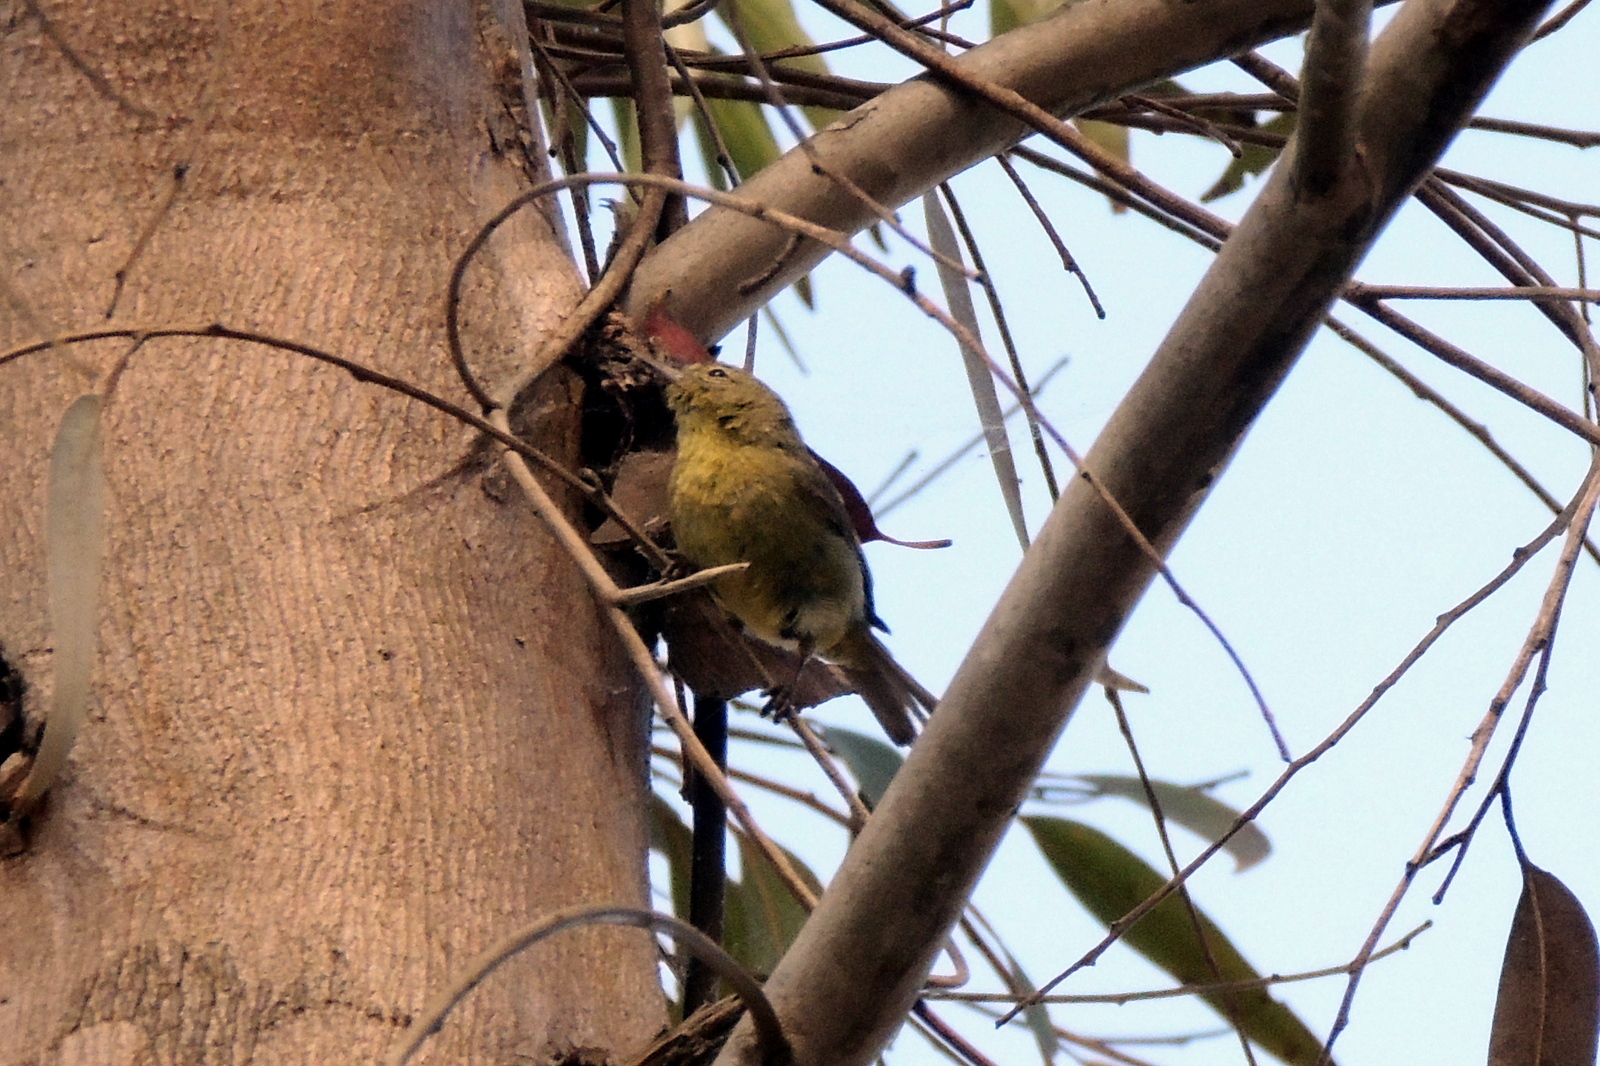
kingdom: Animalia
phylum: Chordata
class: Aves
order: Passeriformes
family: Parulidae
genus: Leiothlypis
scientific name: Leiothlypis celata
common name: Orange-crowned warbler
